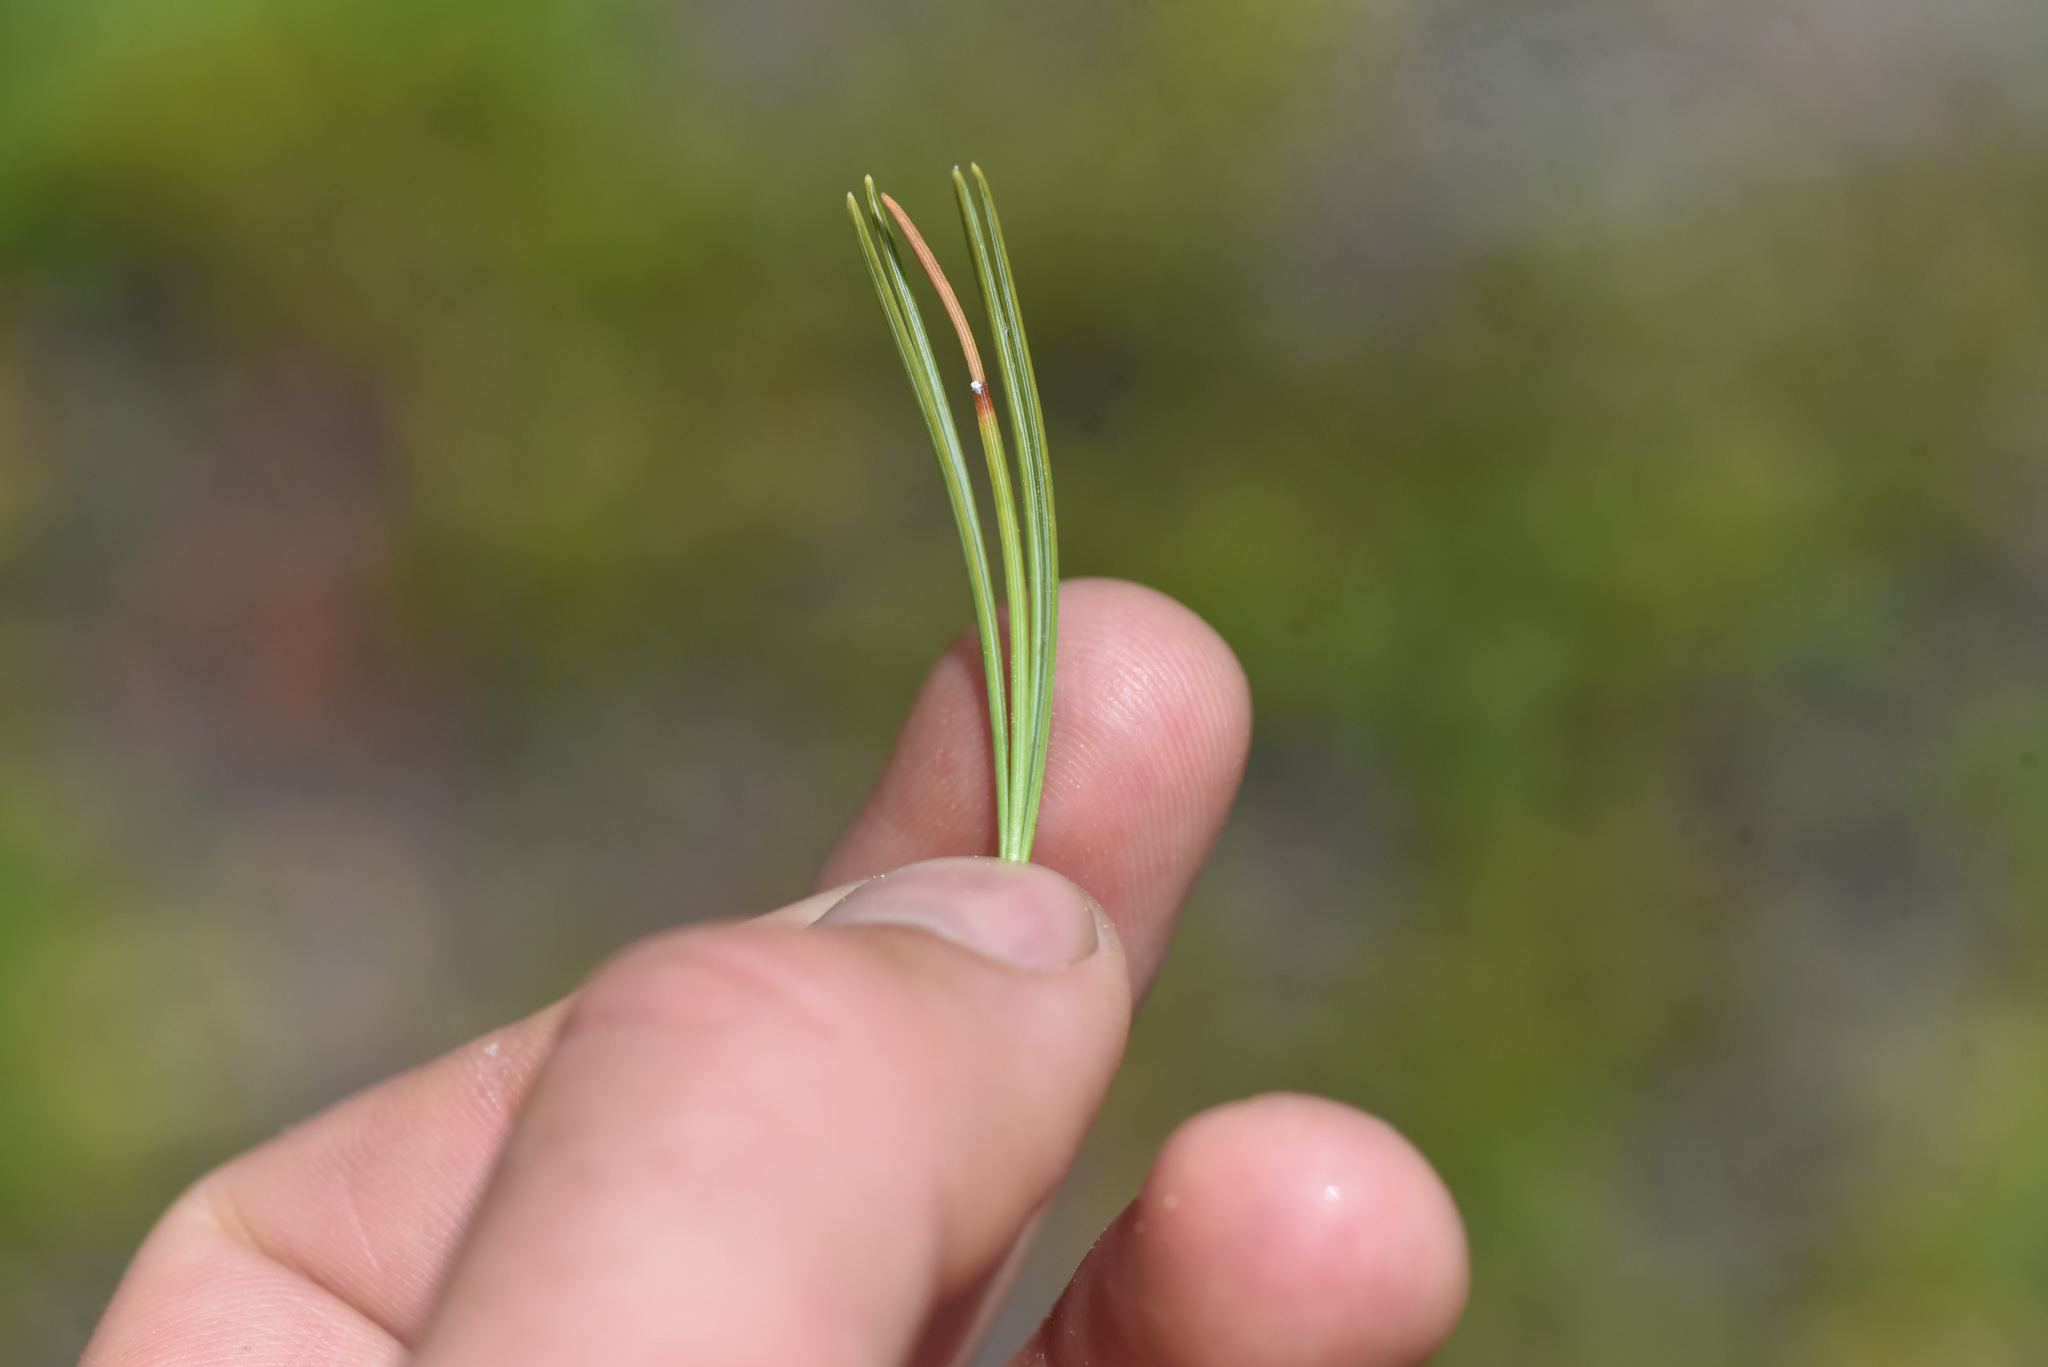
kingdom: Plantae
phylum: Tracheophyta
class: Pinopsida
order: Pinales
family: Pinaceae
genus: Pinus
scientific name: Pinus albicaulis
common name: Whitebark pine
